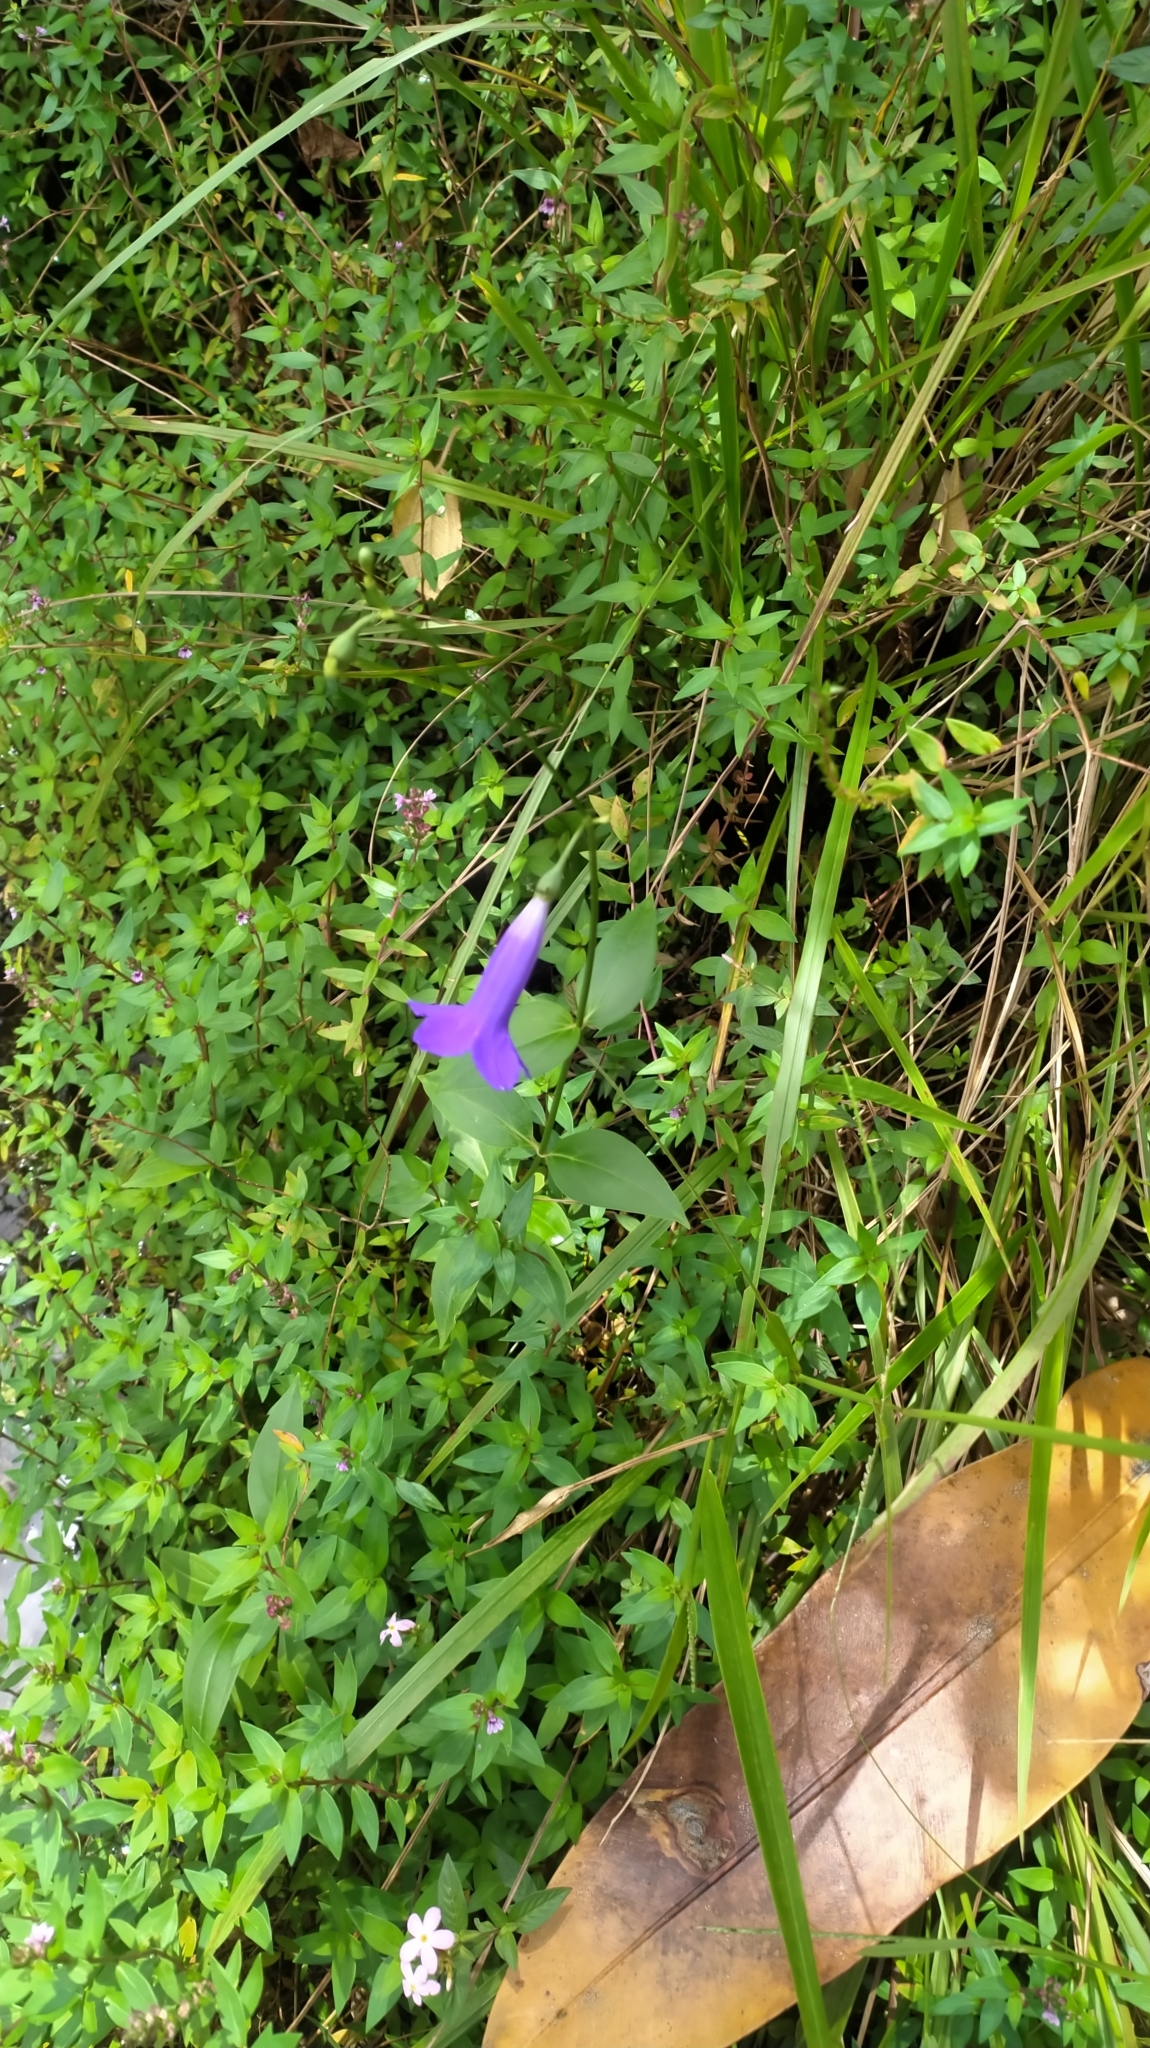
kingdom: Plantae
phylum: Tracheophyta
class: Magnoliopsida
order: Gentianales
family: Gentianaceae
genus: Chelonanthus
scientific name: Chelonanthus purpurascens
